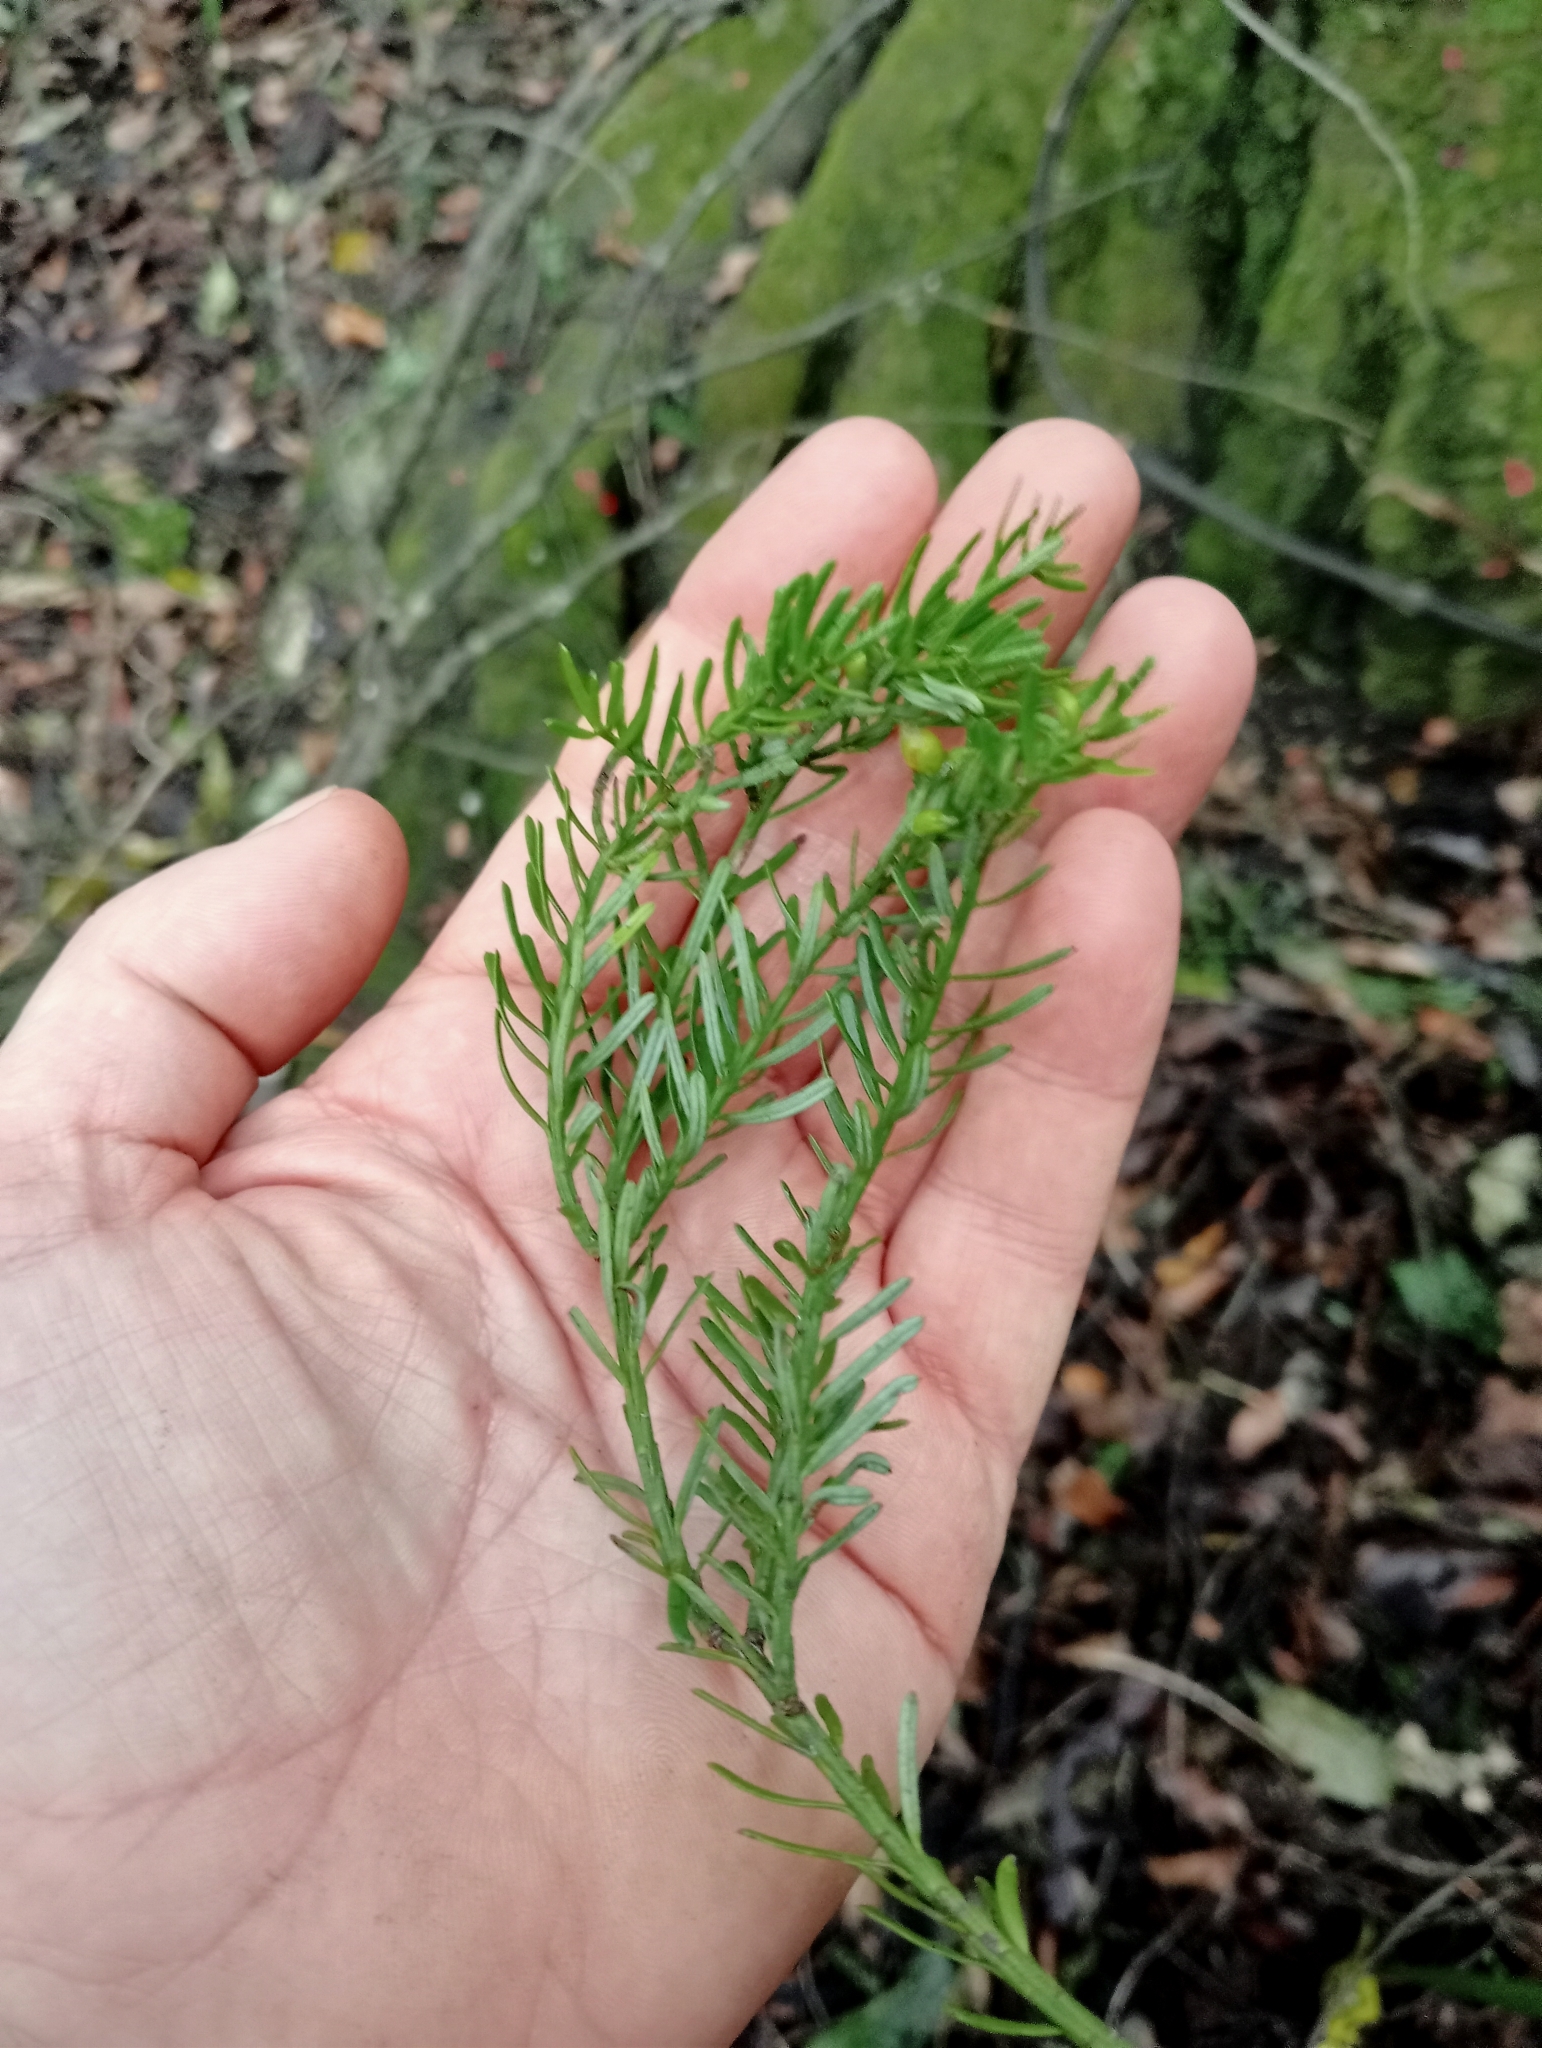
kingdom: Plantae
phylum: Tracheophyta
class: Pinopsida
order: Pinales
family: Podocarpaceae
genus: Prumnopitys
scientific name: Prumnopitys taxifolia
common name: Matai
